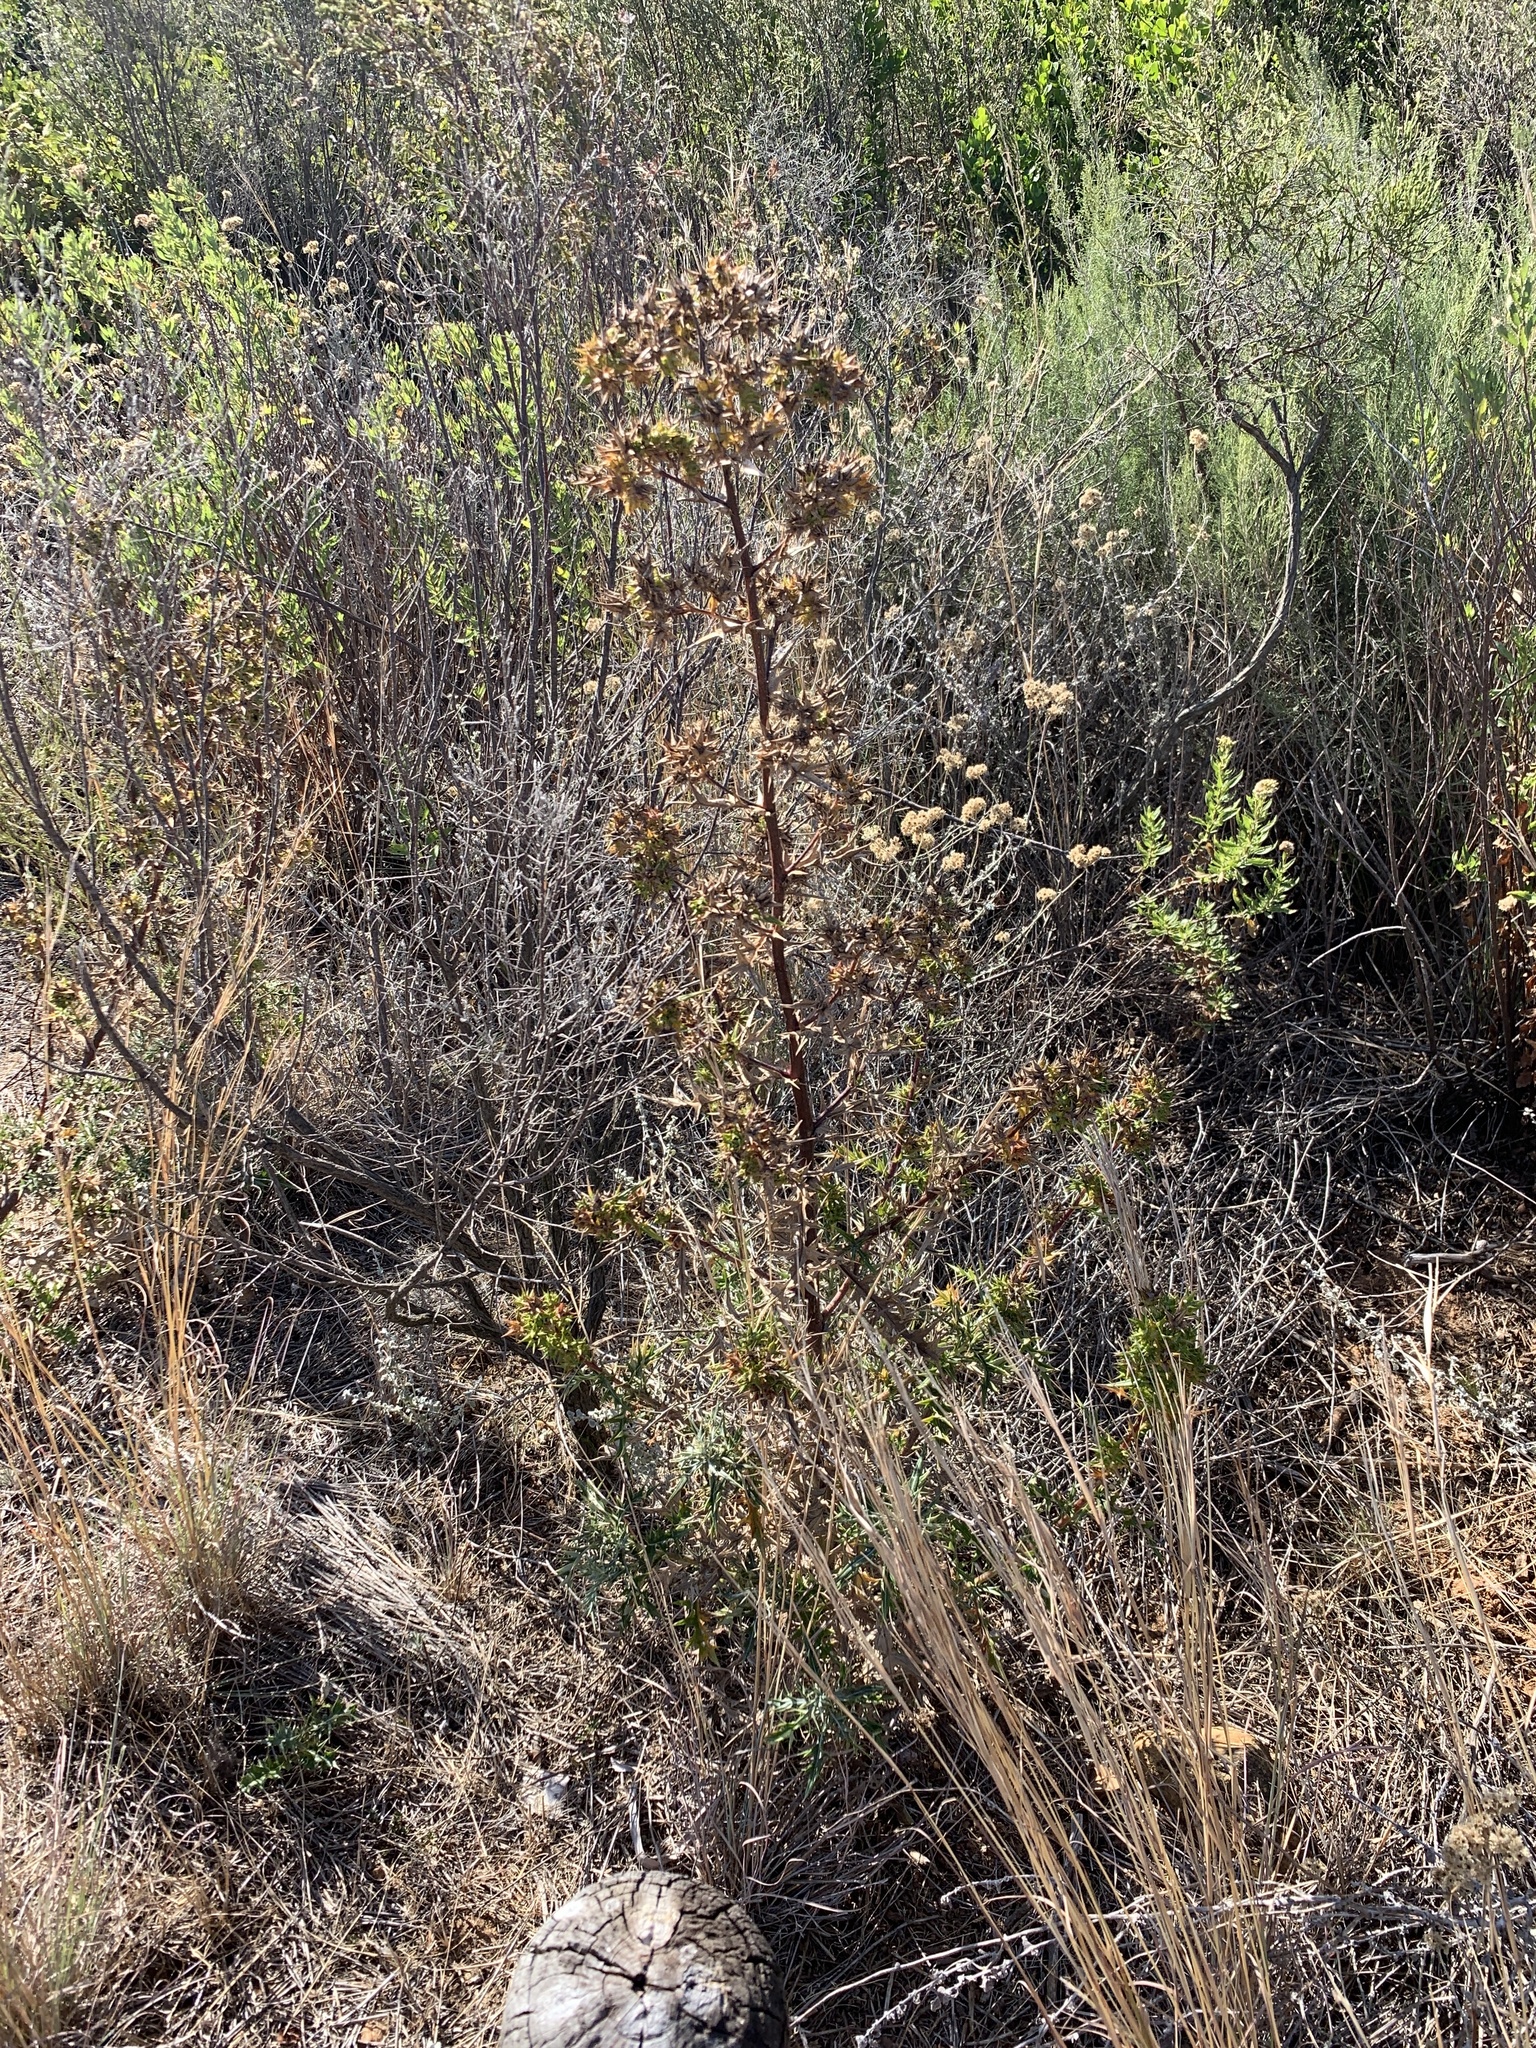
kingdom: Plantae
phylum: Tracheophyta
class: Magnoliopsida
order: Asterales
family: Asteraceae
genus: Berkheya
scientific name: Berkheya rigida
